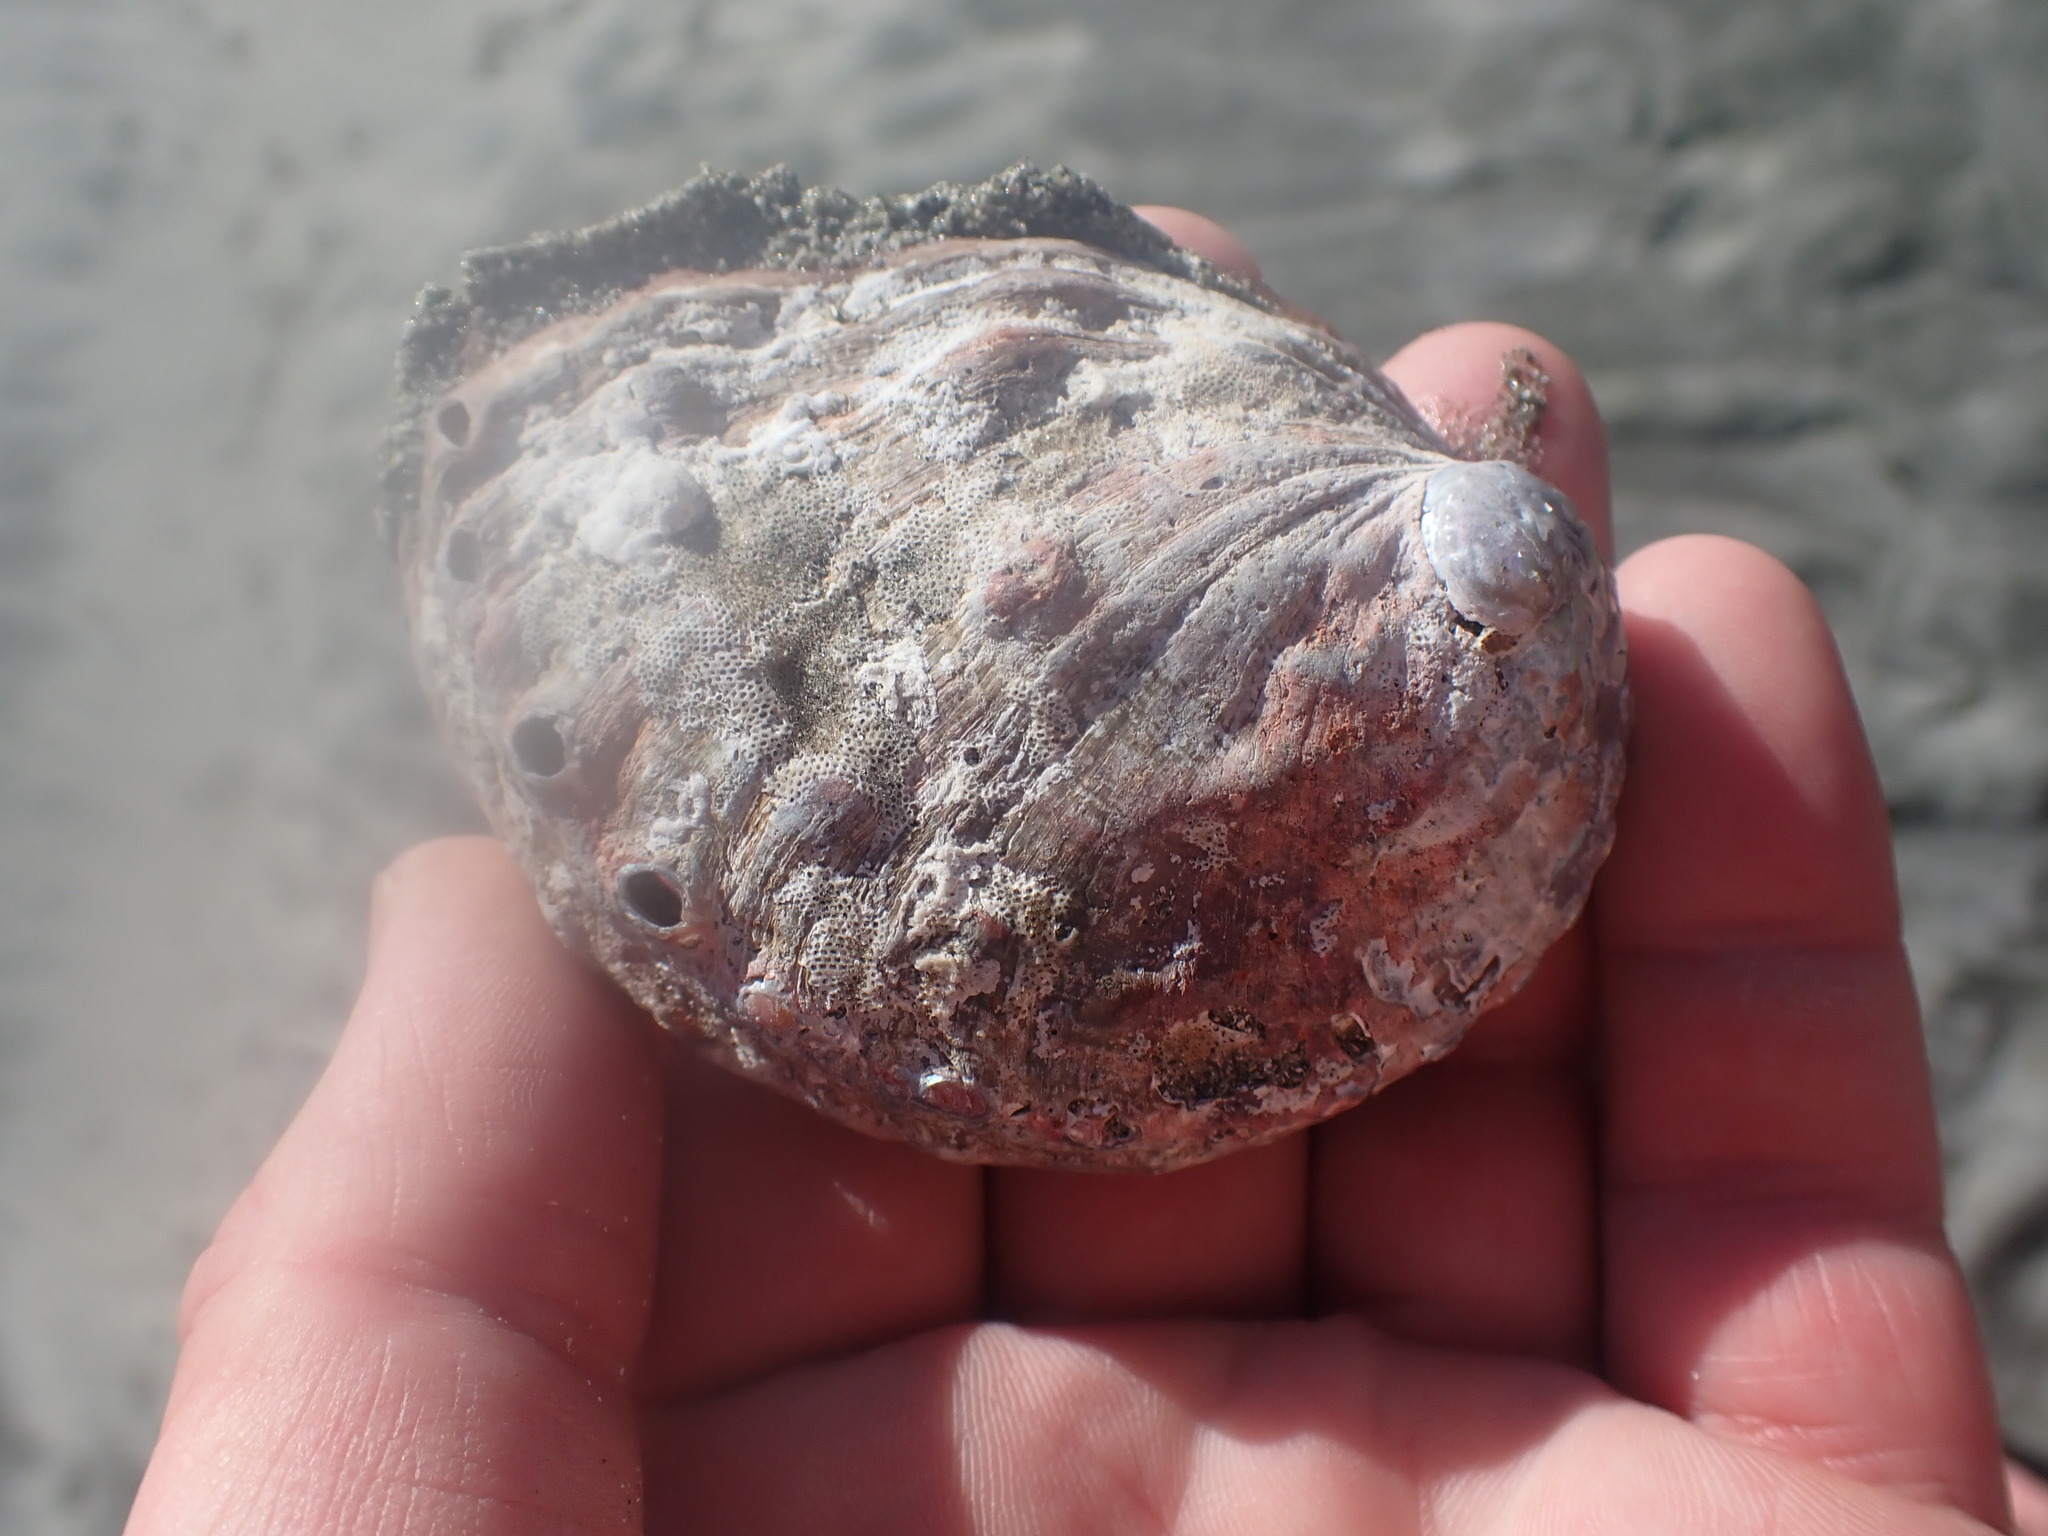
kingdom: Animalia
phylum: Mollusca
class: Gastropoda
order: Lepetellida
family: Haliotidae
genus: Haliotis
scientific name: Haliotis kamtschatkana
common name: Pinto abalone
